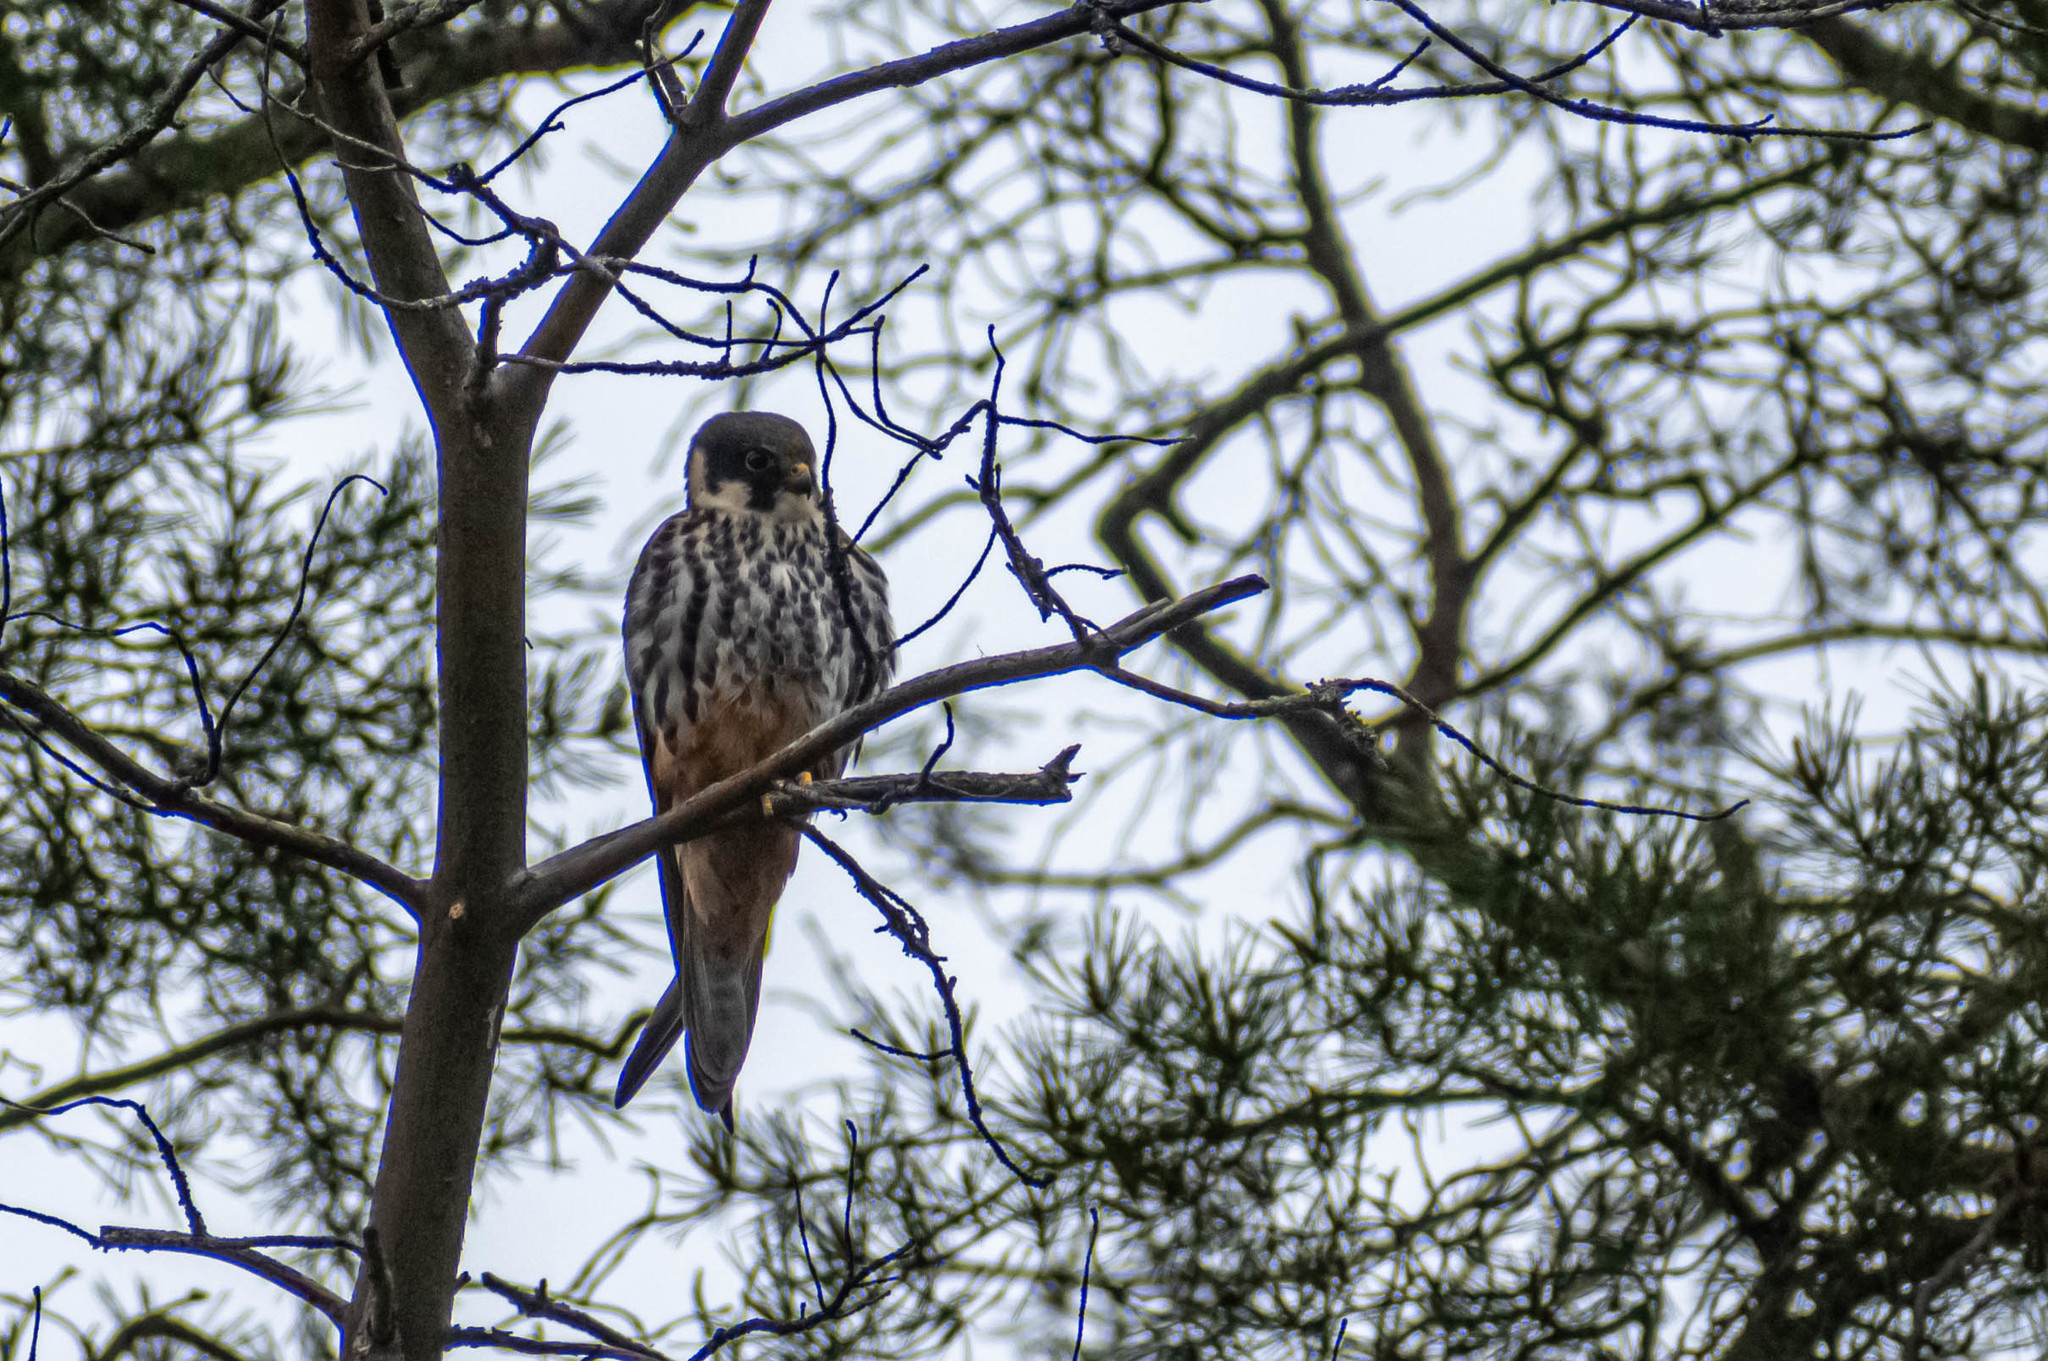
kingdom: Animalia
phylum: Chordata
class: Aves
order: Falconiformes
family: Falconidae
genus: Falco
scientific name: Falco subbuteo
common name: Eurasian hobby
